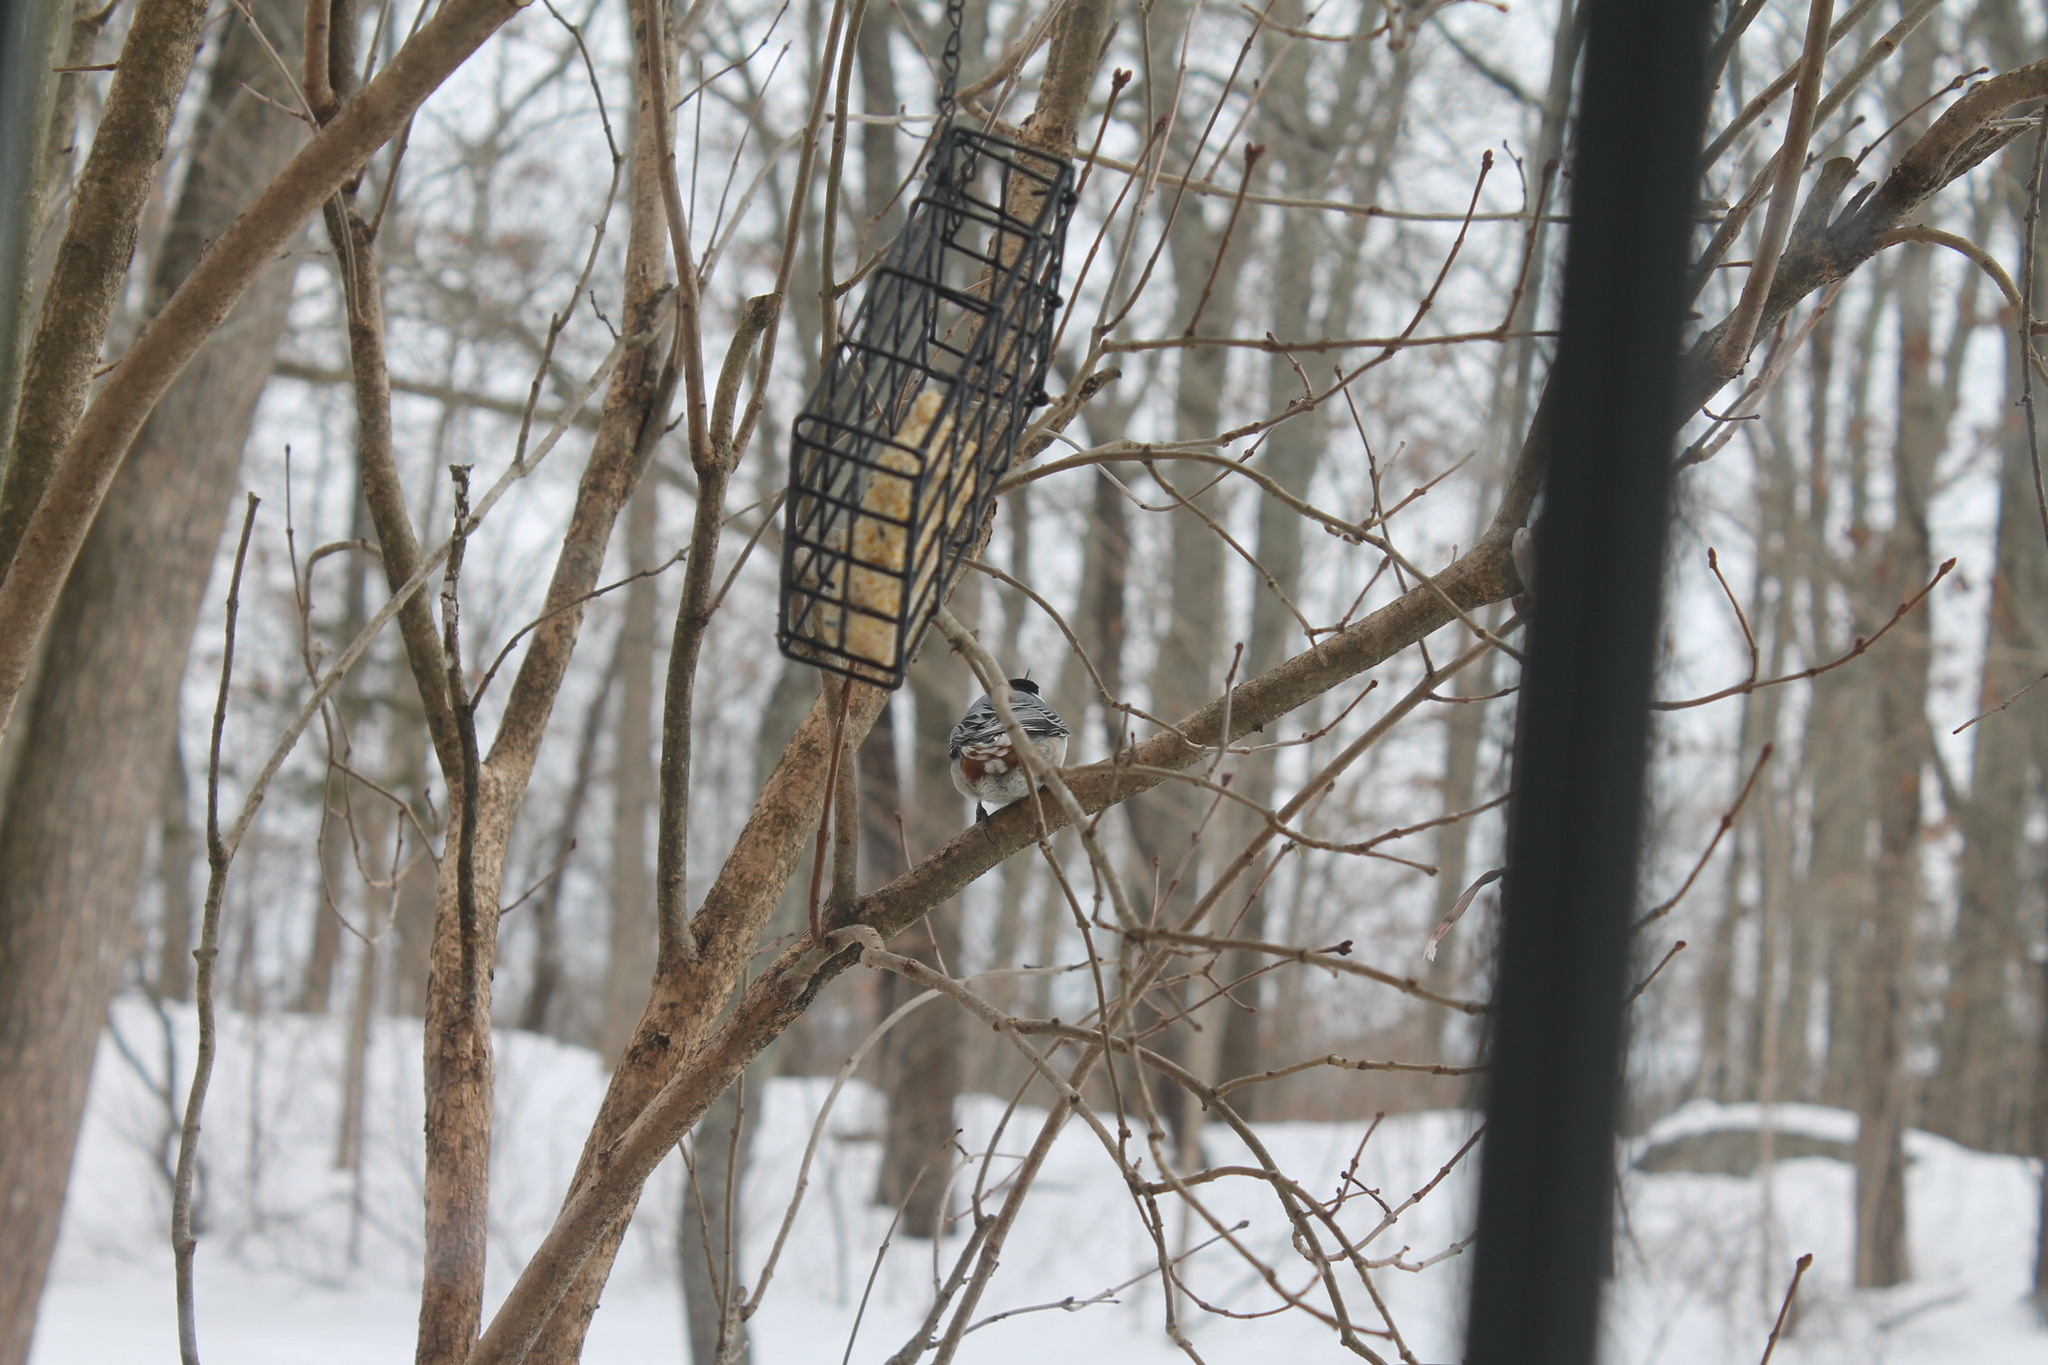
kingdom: Animalia
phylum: Chordata
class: Aves
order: Passeriformes
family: Sittidae
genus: Sitta
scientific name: Sitta carolinensis
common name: White-breasted nuthatch
